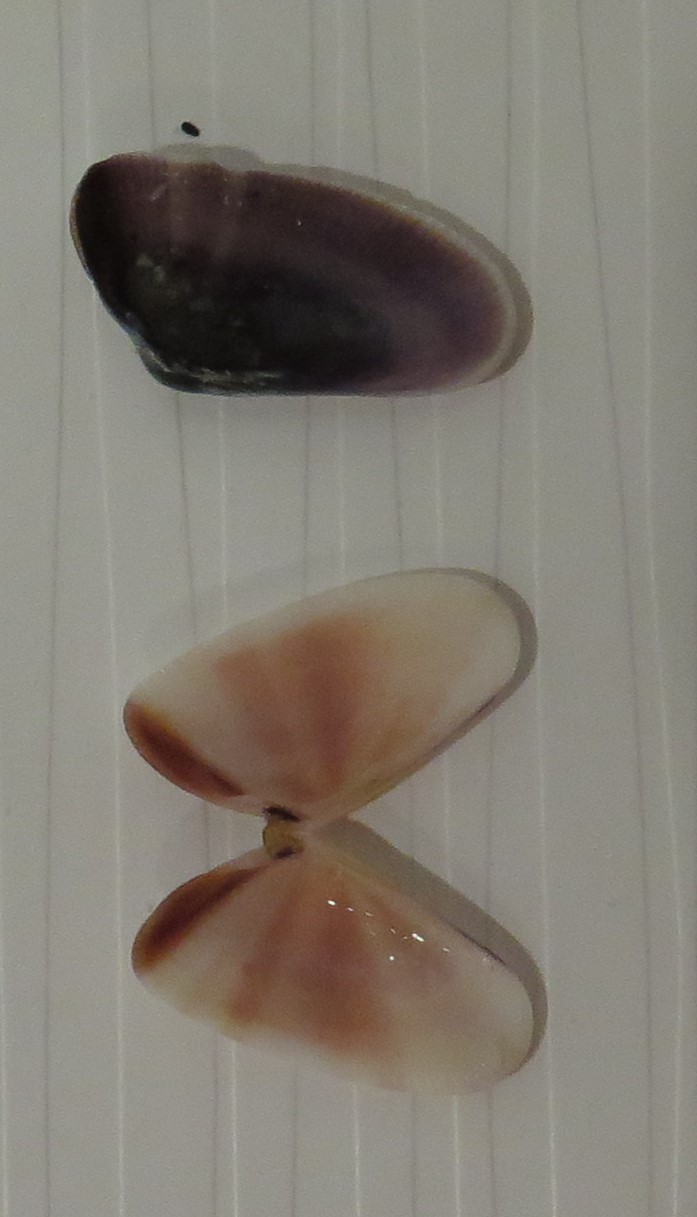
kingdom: Animalia
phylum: Mollusca
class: Bivalvia
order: Cardiida
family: Donacidae
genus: Donax
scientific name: Donax variabilis
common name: Butterfly shell
